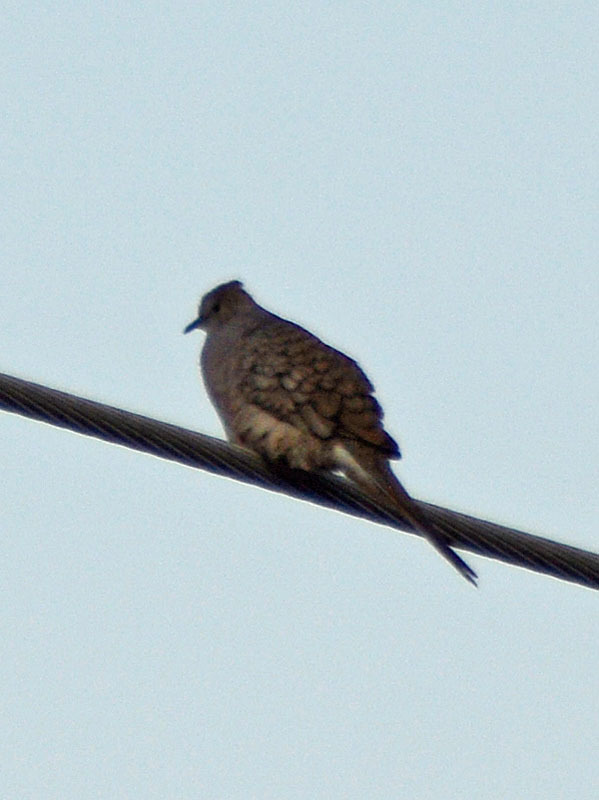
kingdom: Animalia
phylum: Chordata
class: Aves
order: Columbiformes
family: Columbidae
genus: Columbina
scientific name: Columbina inca
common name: Inca dove
